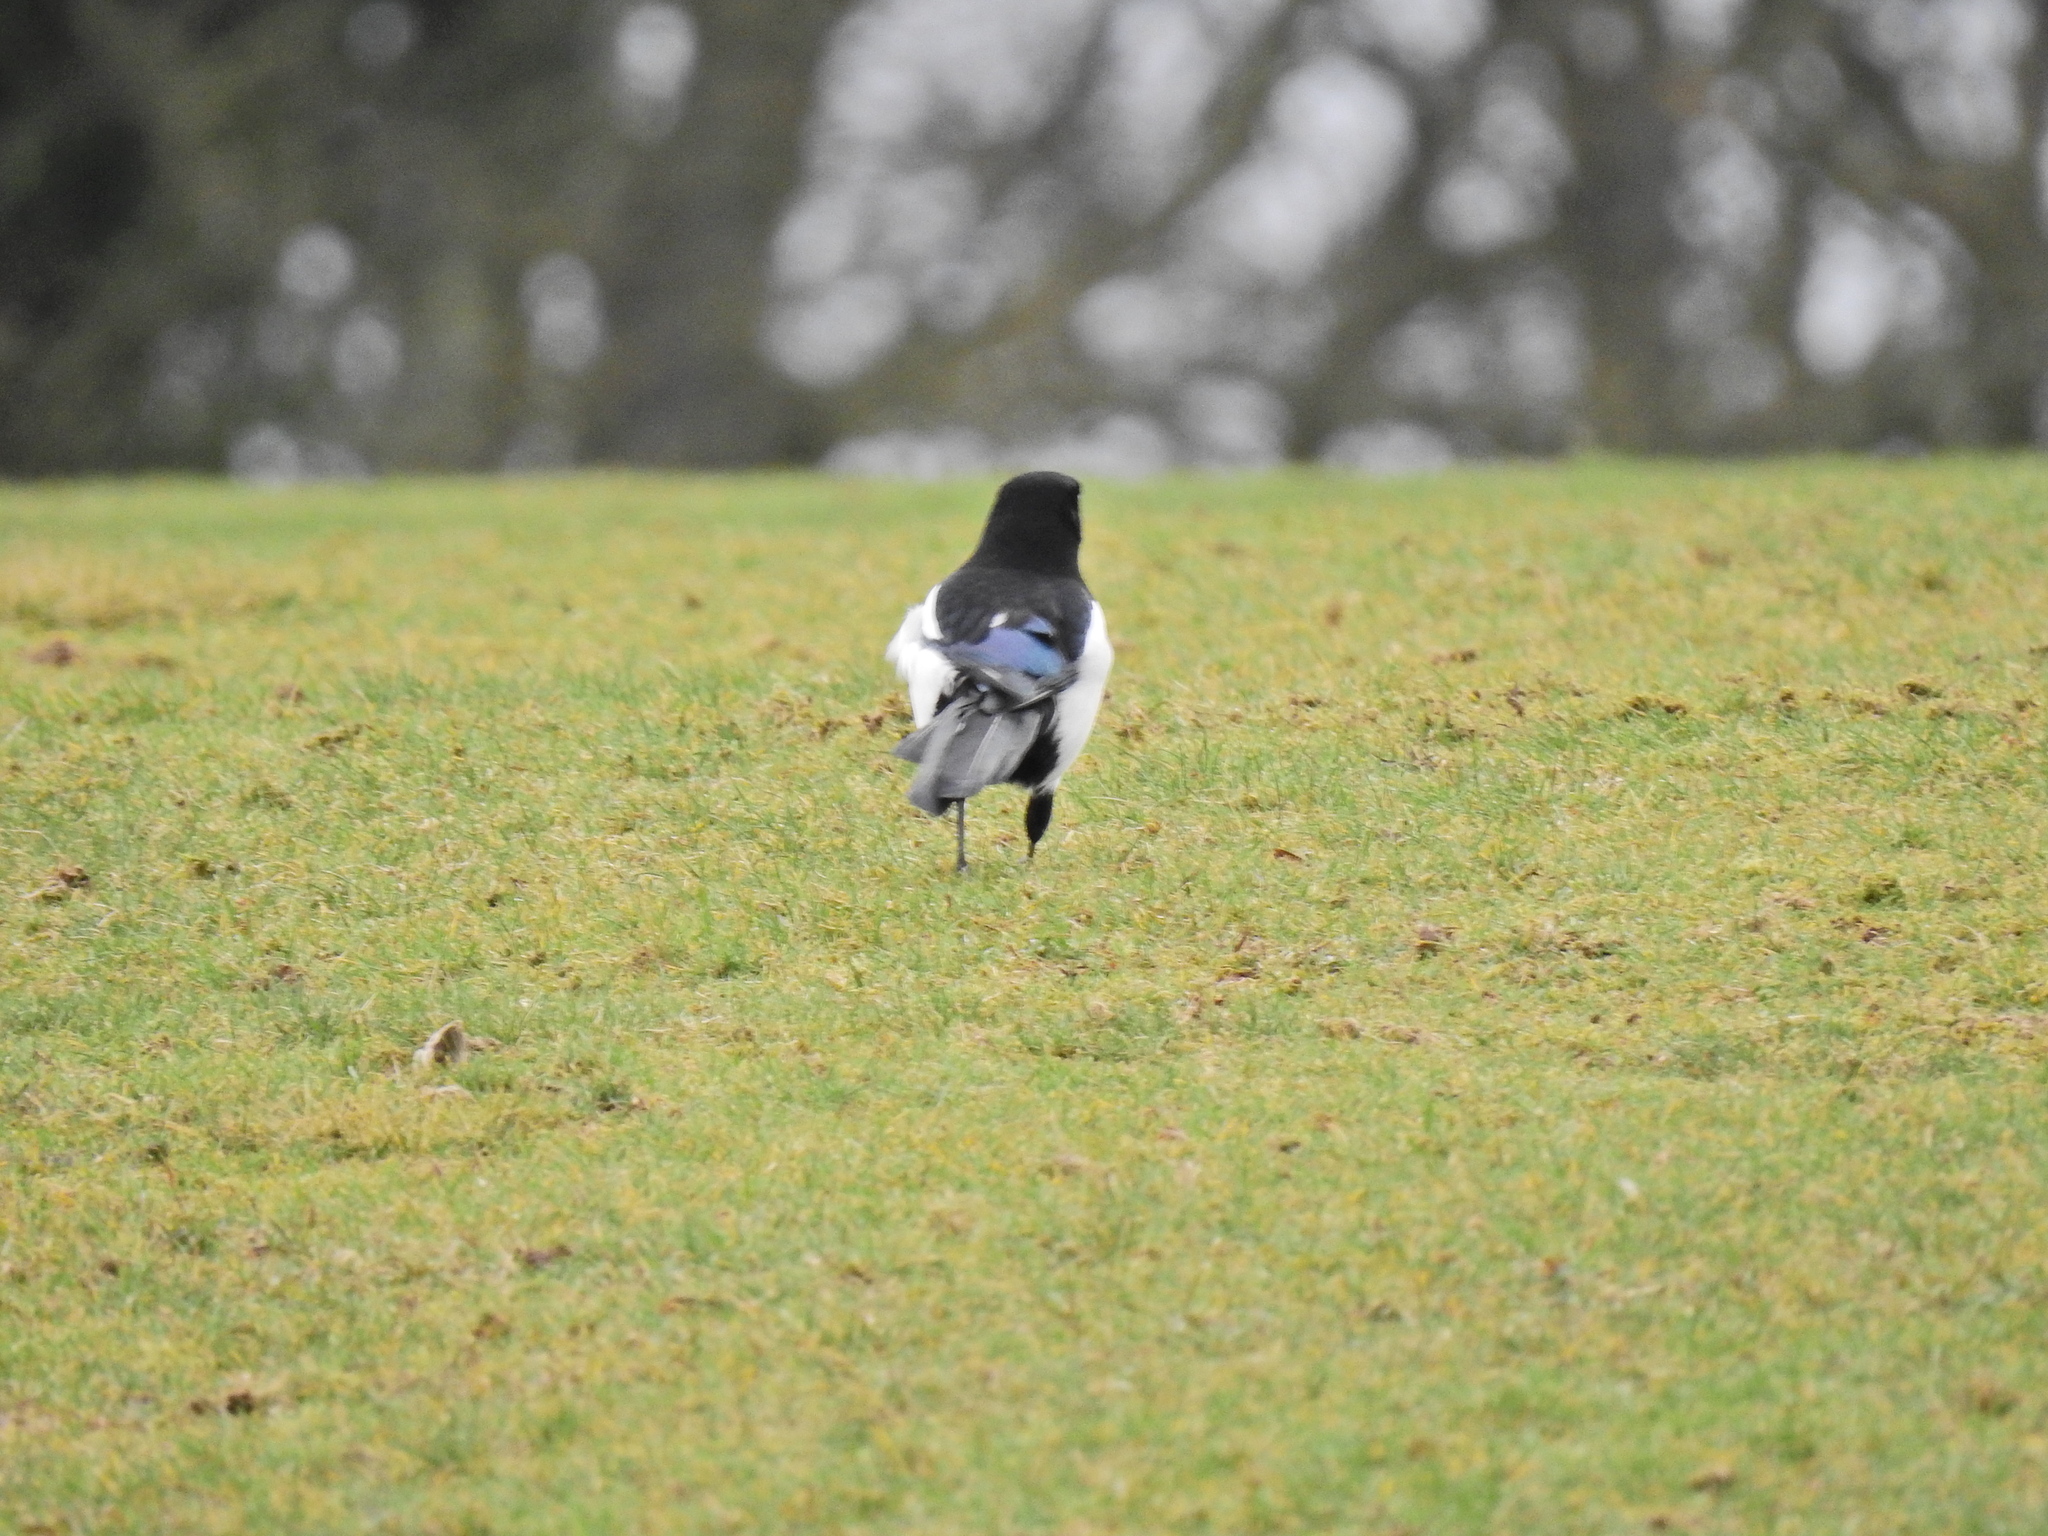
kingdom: Animalia
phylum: Chordata
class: Aves
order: Passeriformes
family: Corvidae
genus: Pica
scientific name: Pica pica
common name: Eurasian magpie
